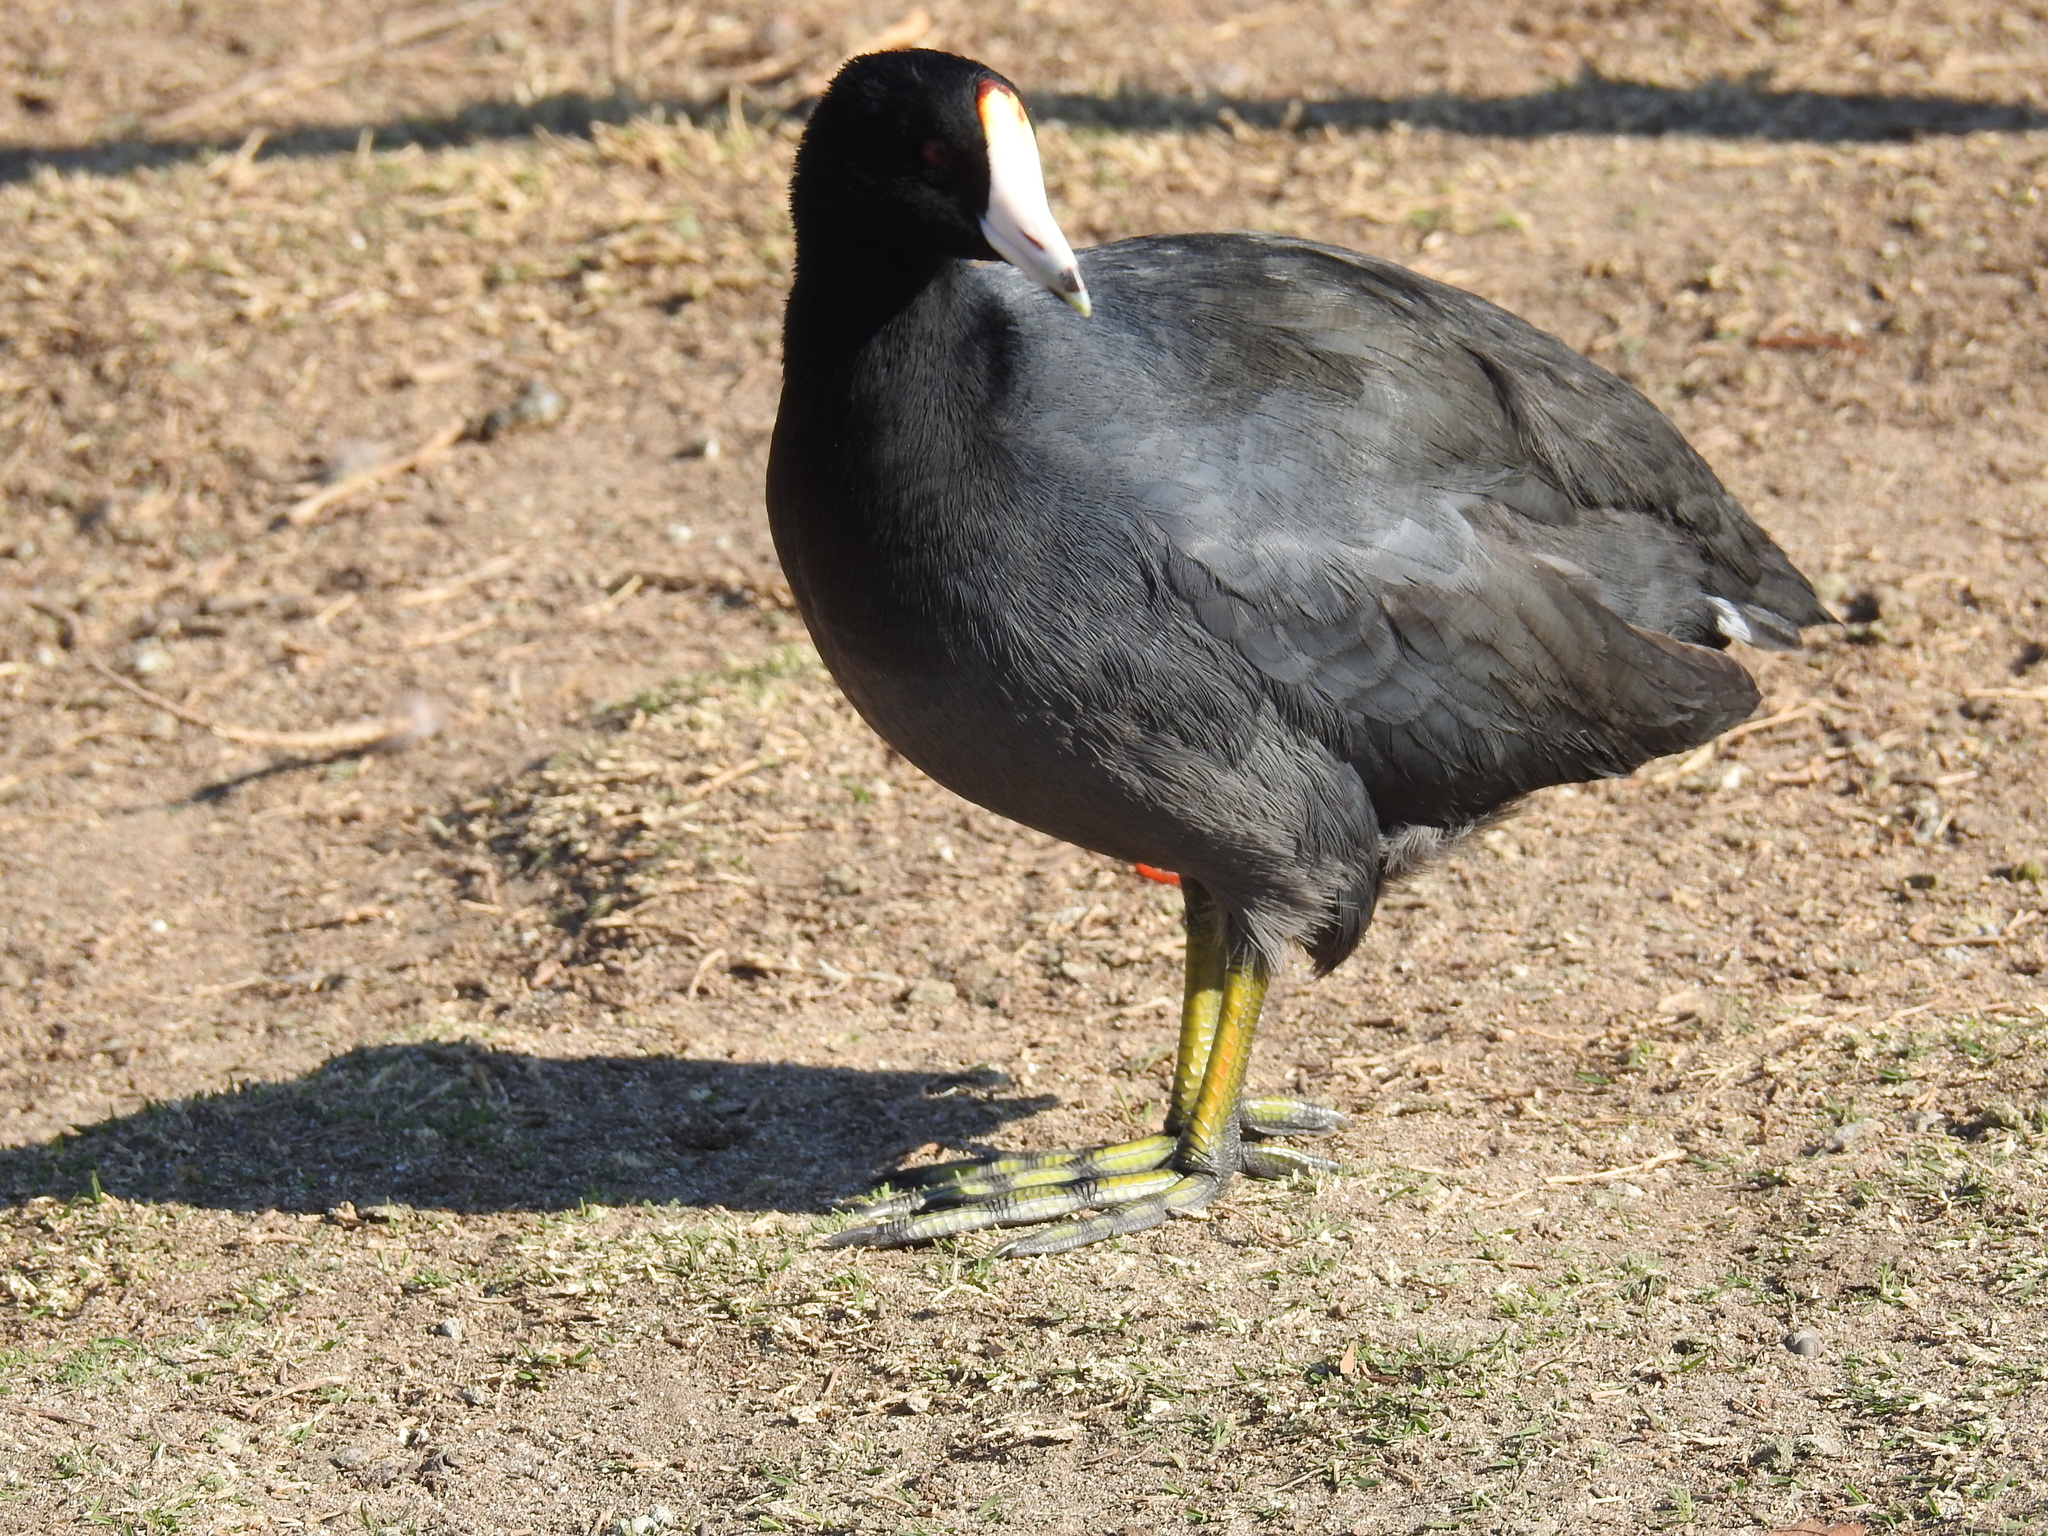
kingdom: Animalia
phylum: Chordata
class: Aves
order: Gruiformes
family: Rallidae
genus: Fulica
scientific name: Fulica americana
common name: American coot
